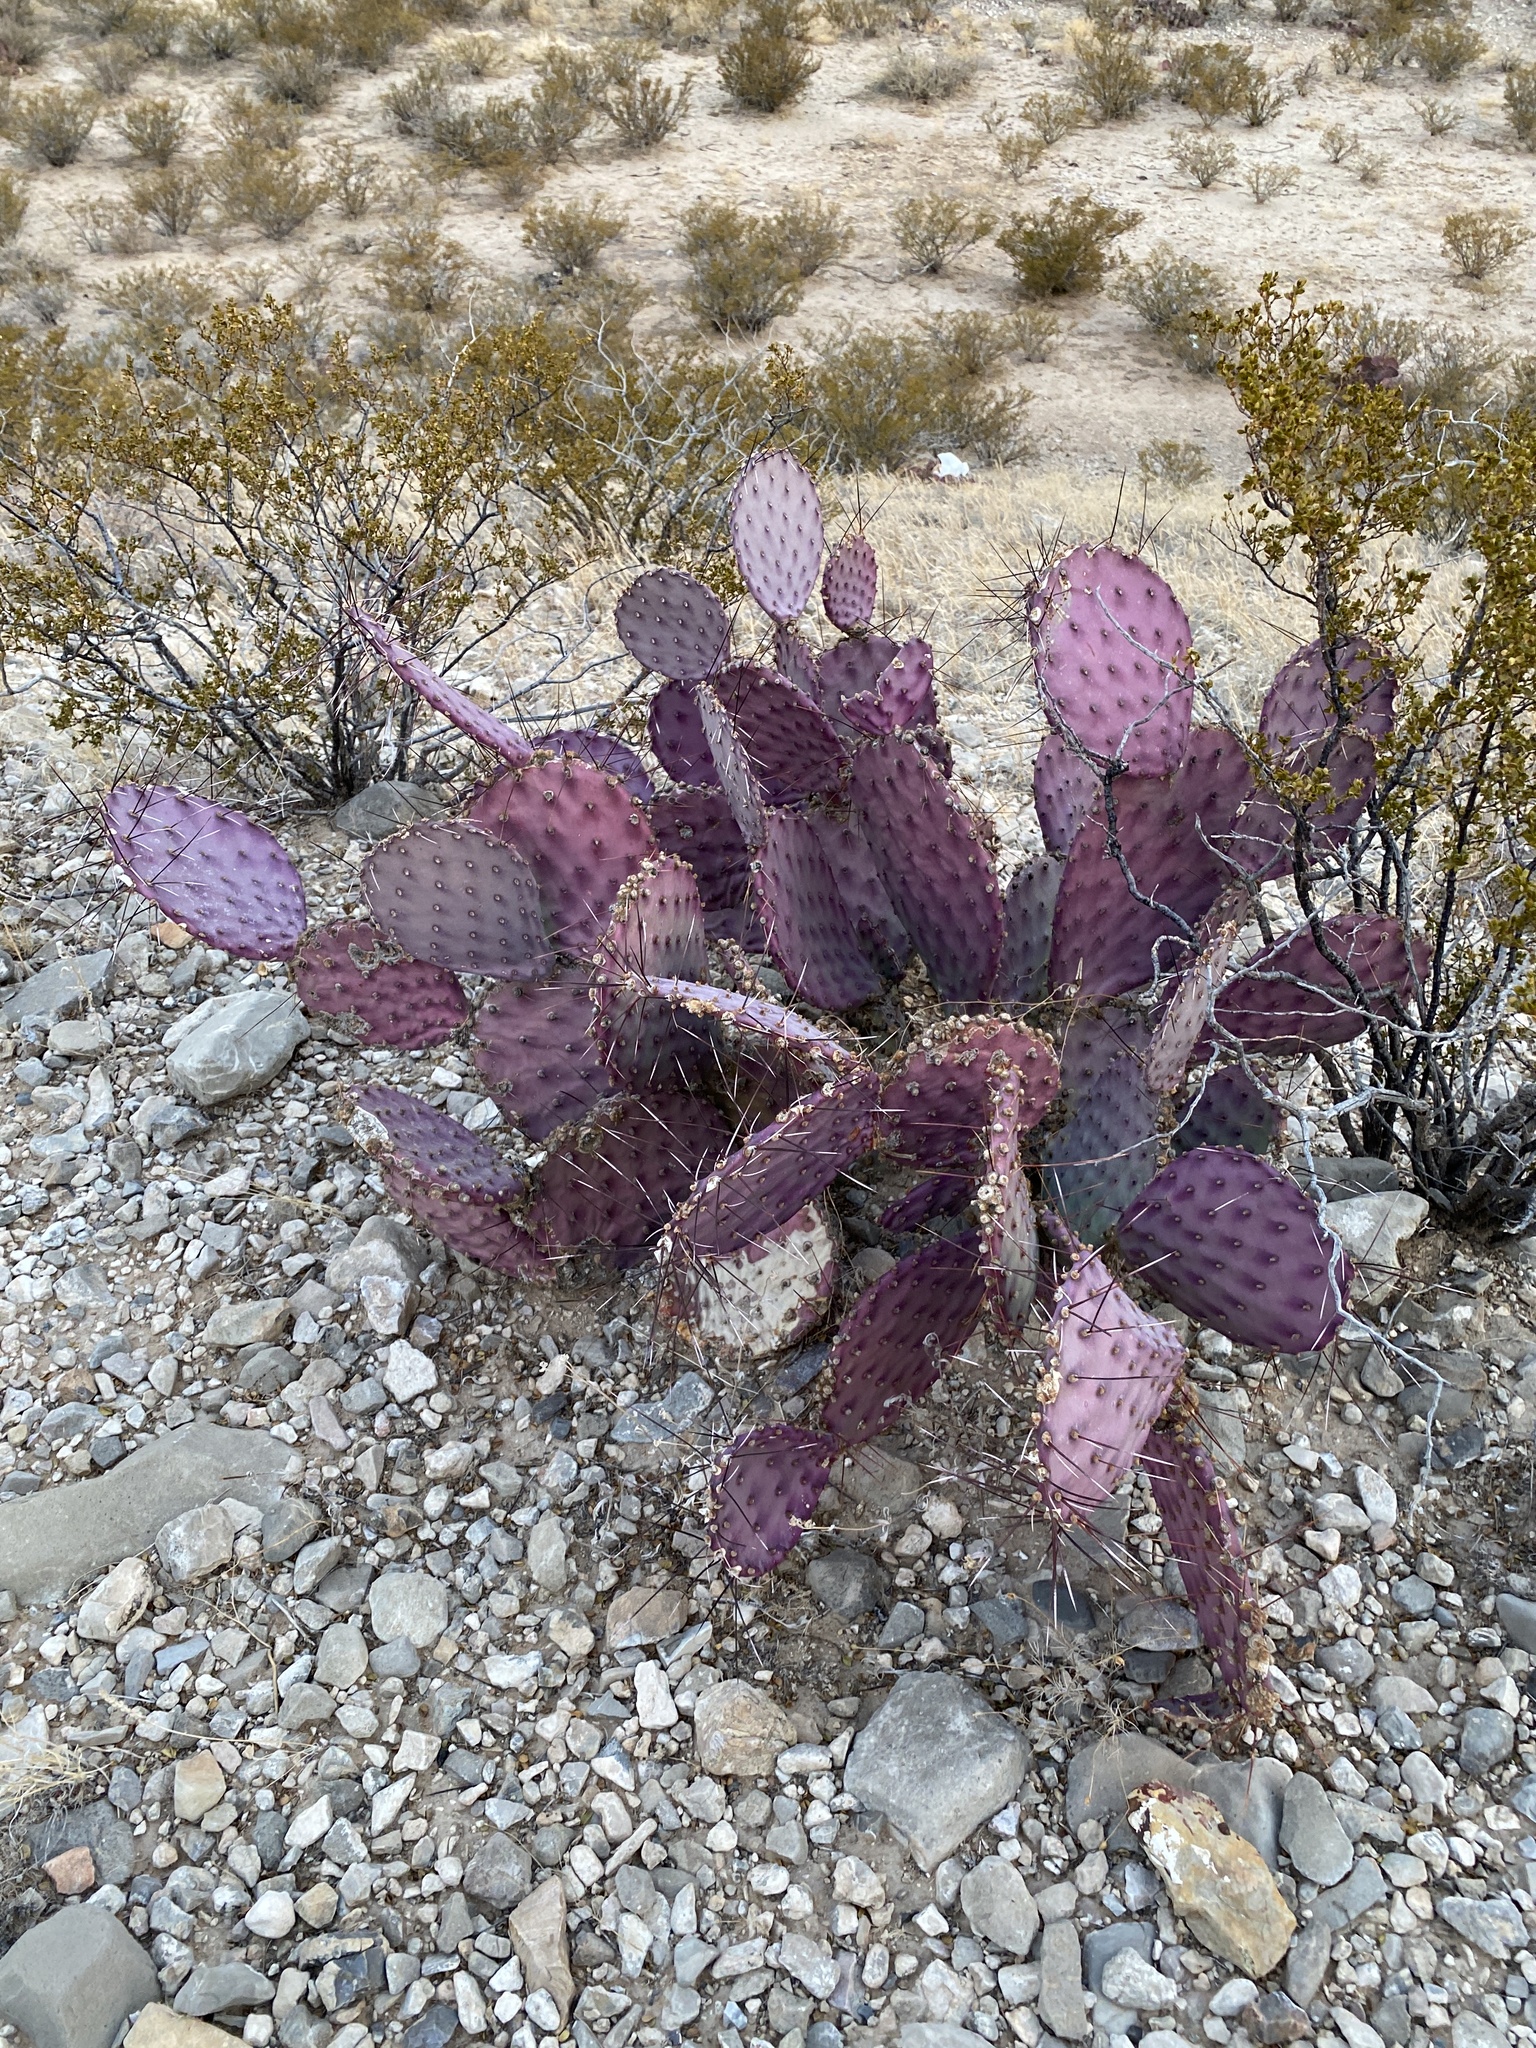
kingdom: Plantae
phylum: Tracheophyta
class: Magnoliopsida
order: Caryophyllales
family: Cactaceae
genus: Opuntia
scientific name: Opuntia macrocentra
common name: Purple prickly-pear
